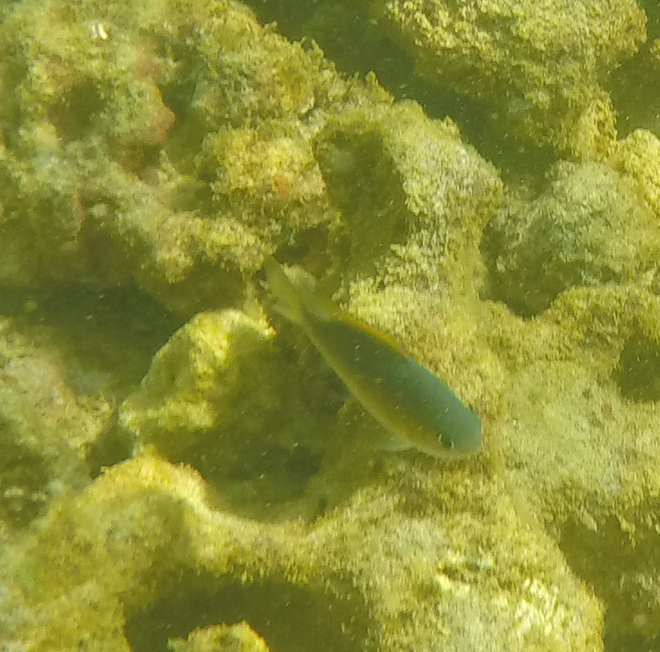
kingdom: Animalia
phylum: Chordata
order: Perciformes
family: Pomacentridae
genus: Chromis
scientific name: Chromis vanderbilti
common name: Vanderbilt's chromis
